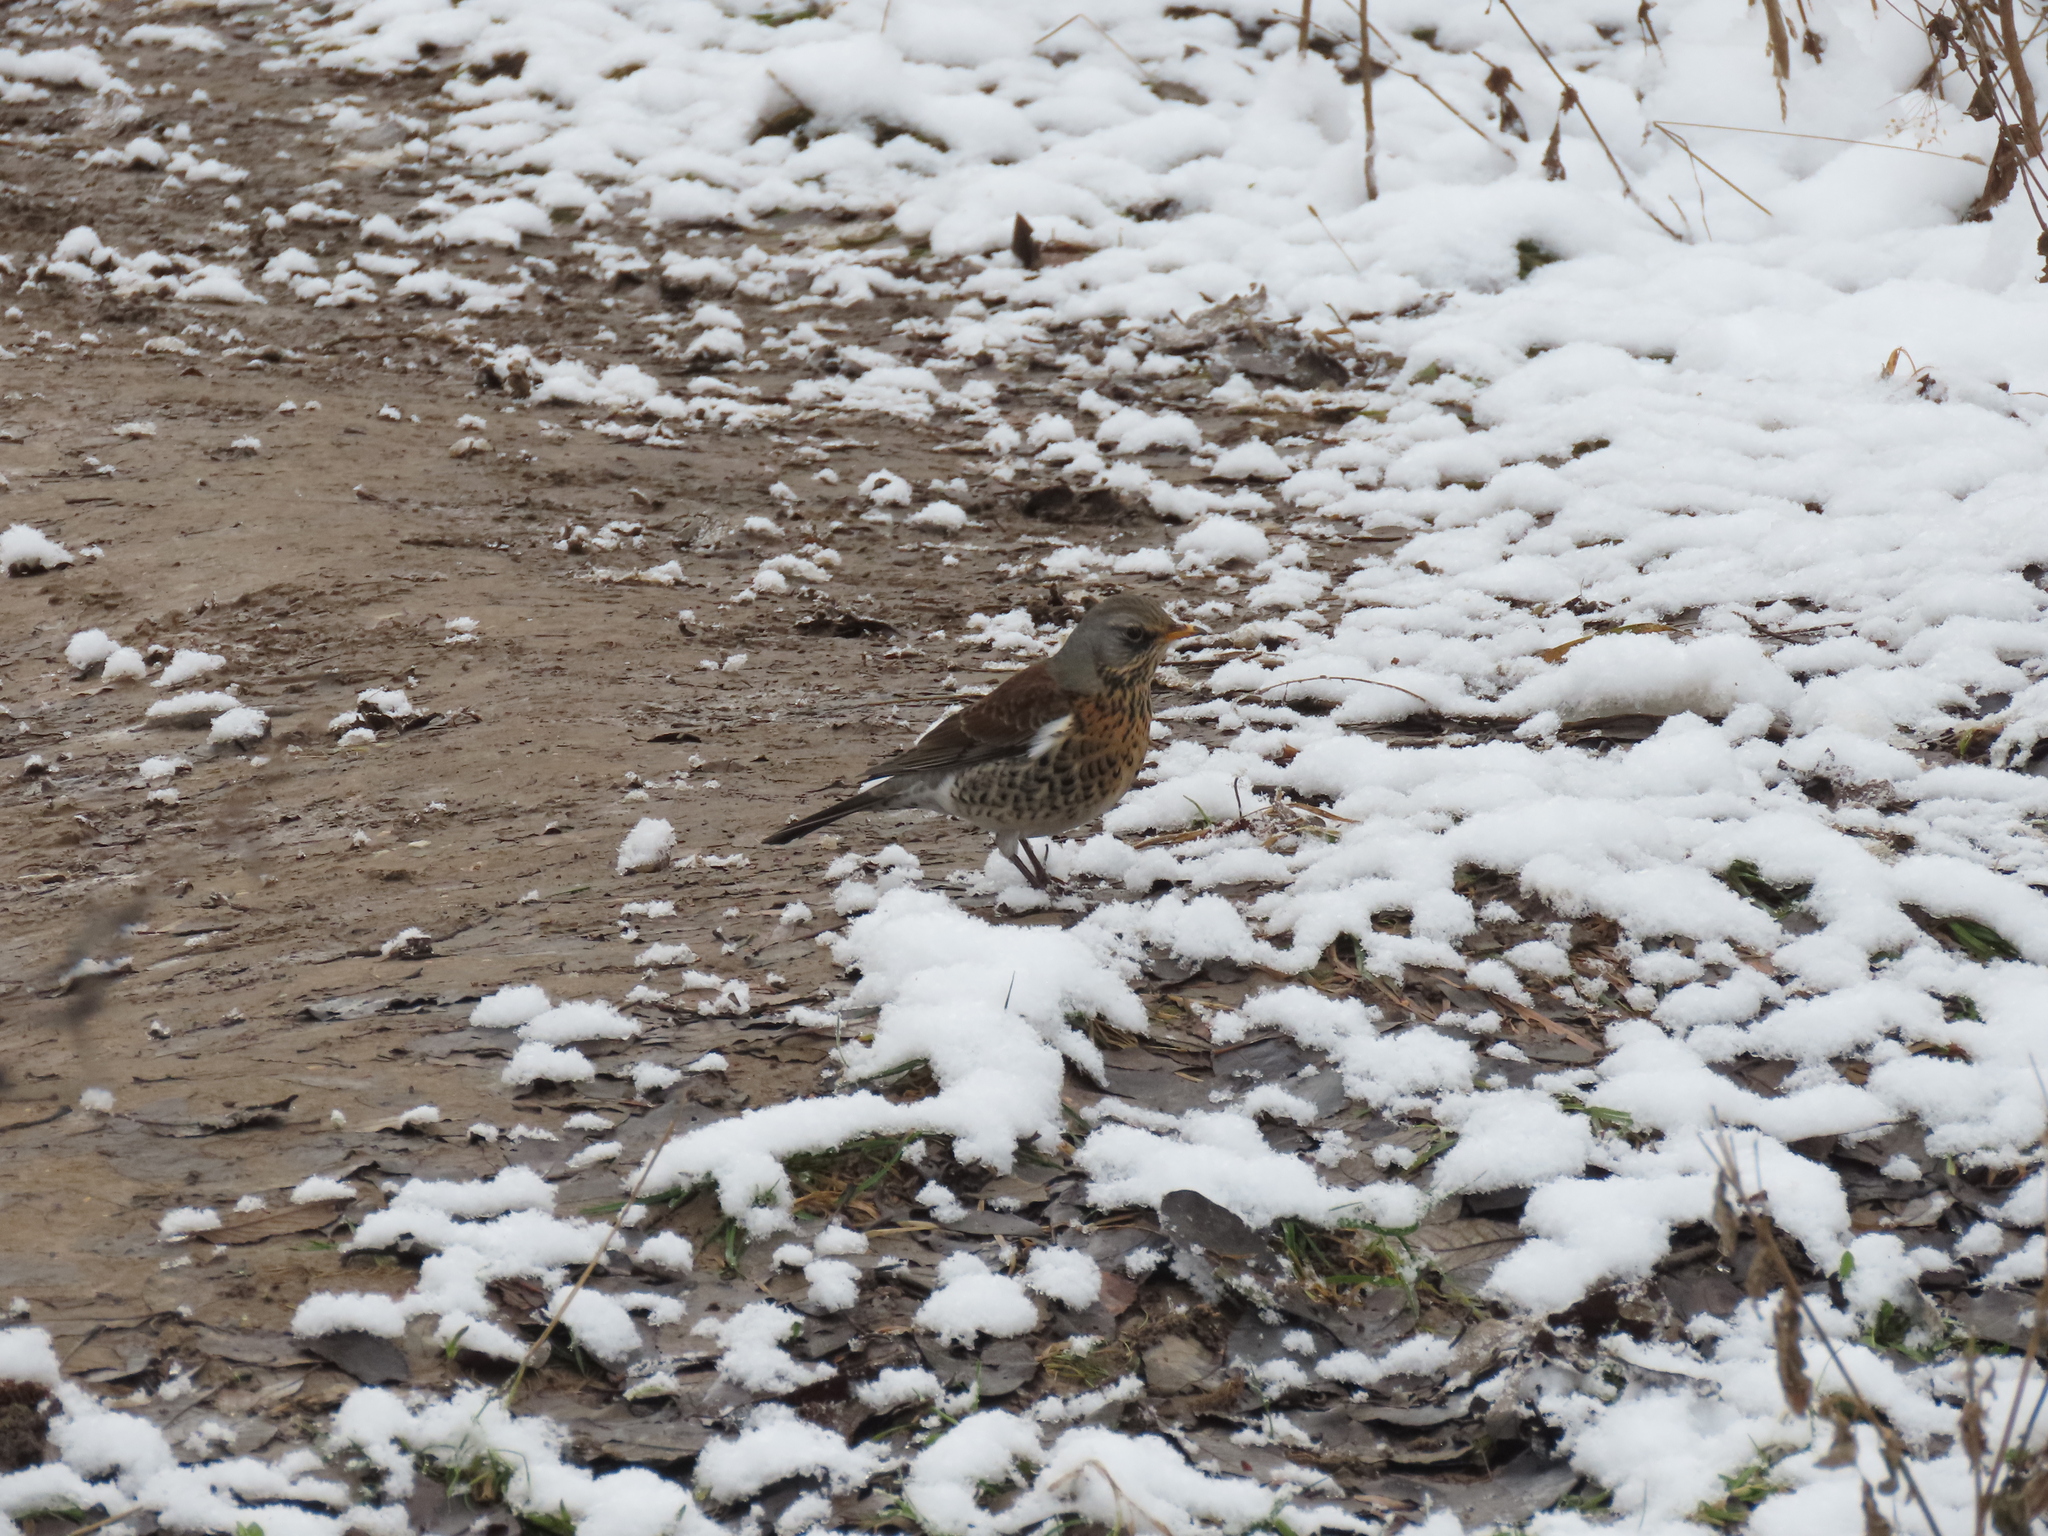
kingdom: Animalia
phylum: Chordata
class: Aves
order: Passeriformes
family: Turdidae
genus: Turdus
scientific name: Turdus pilaris
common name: Fieldfare
